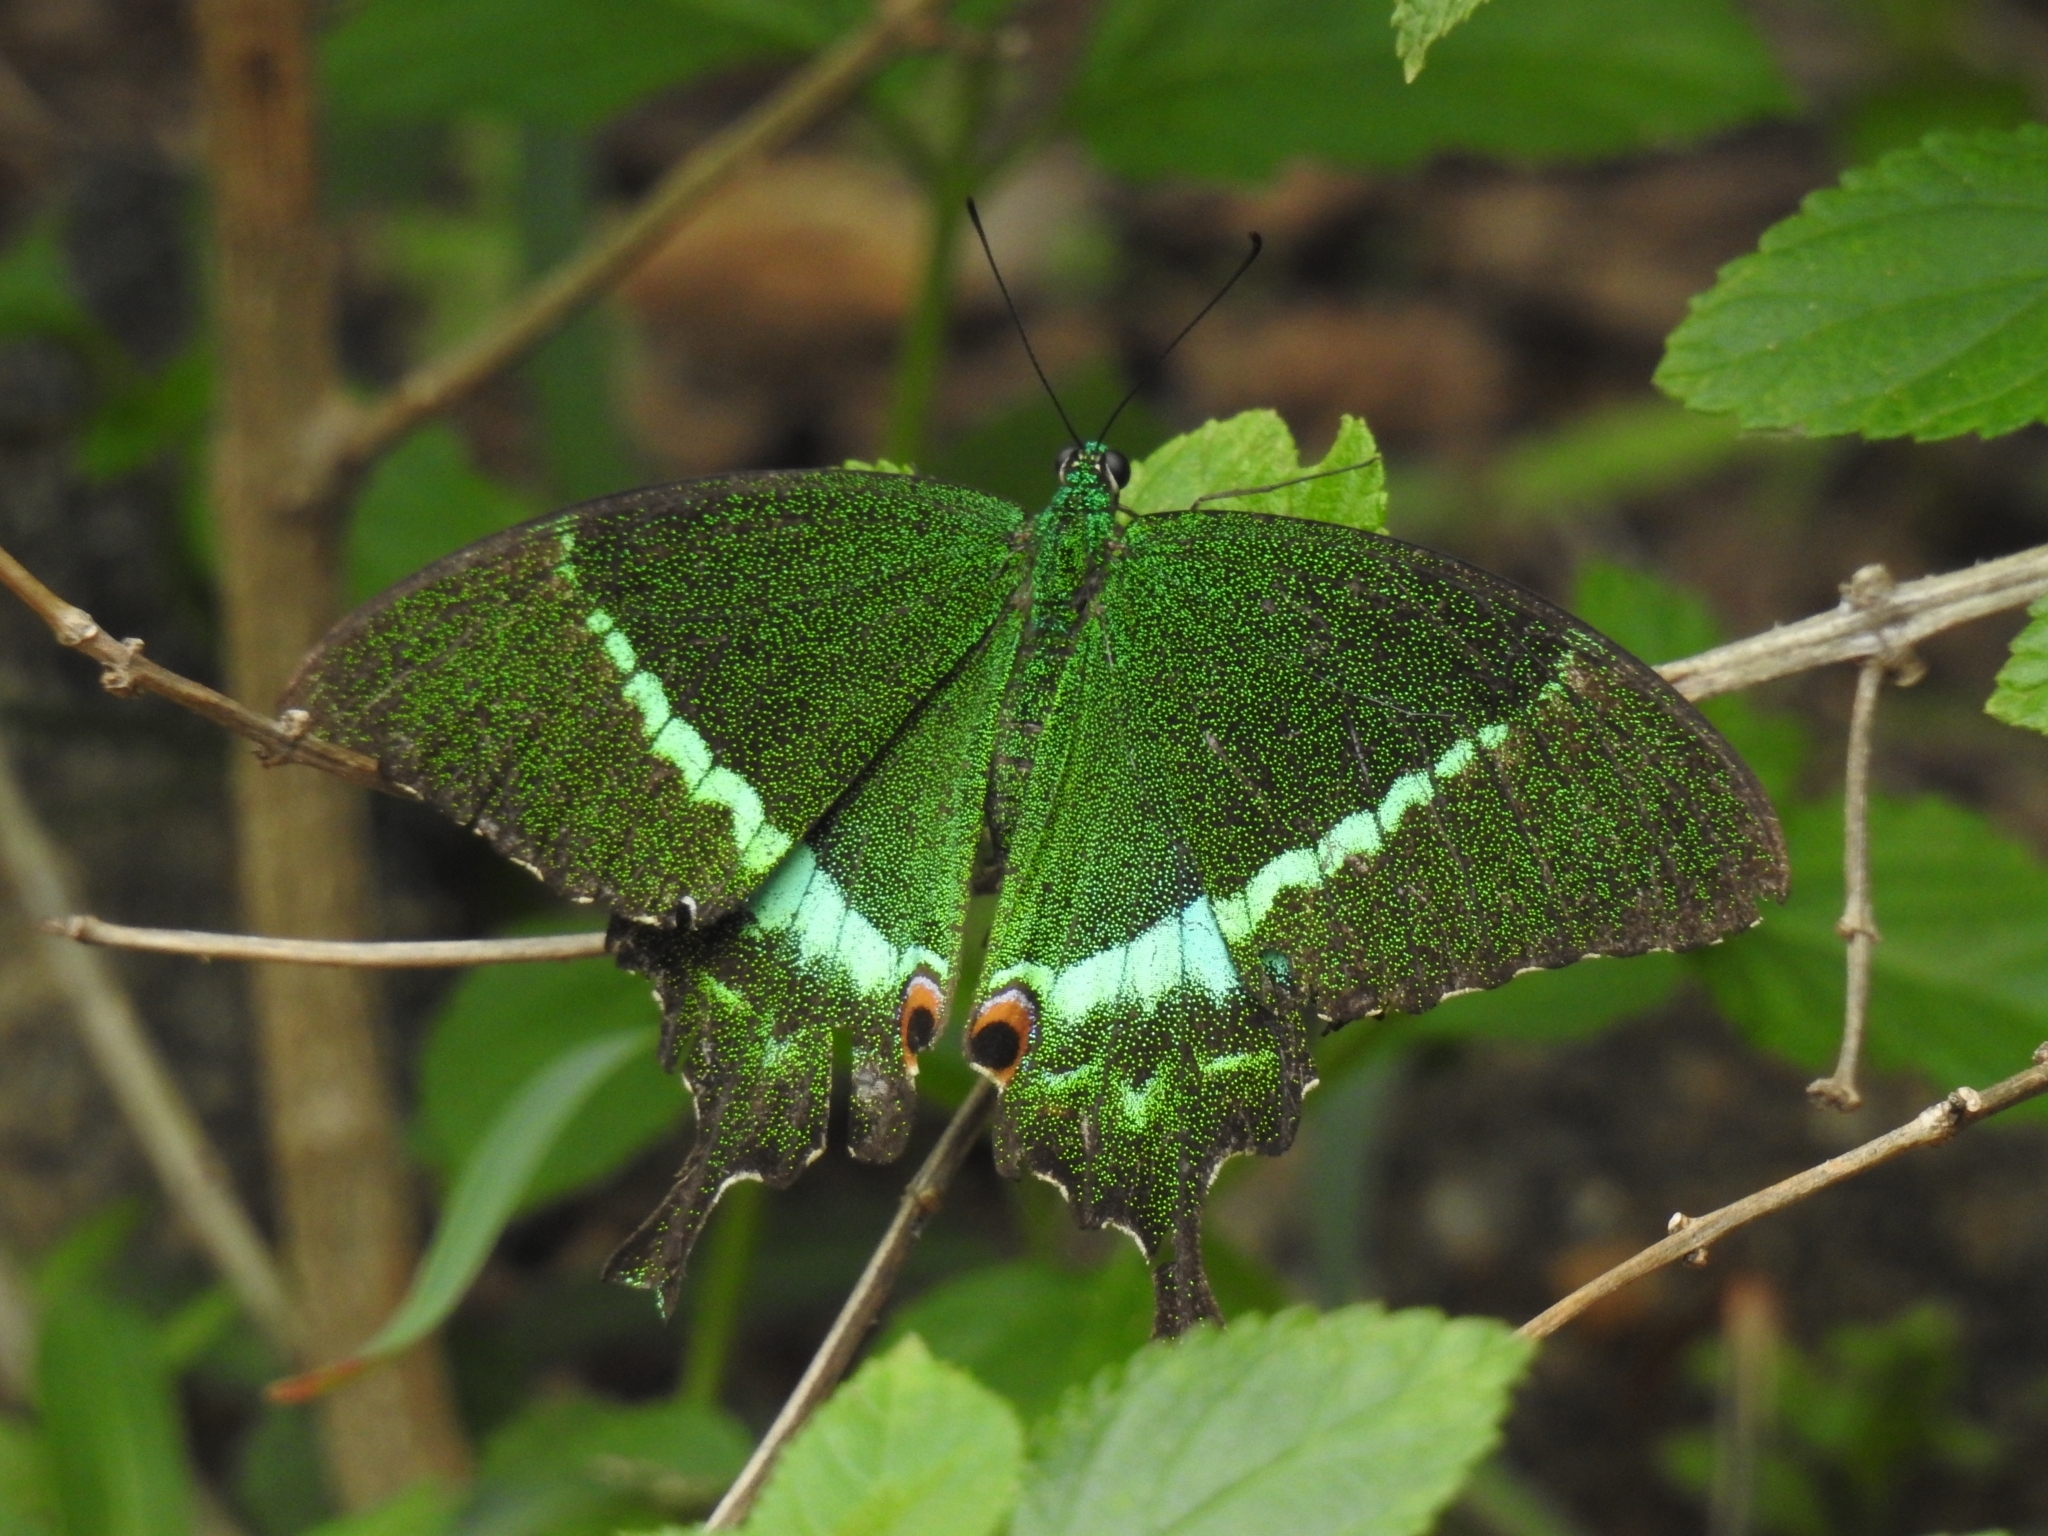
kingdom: Animalia
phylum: Arthropoda
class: Insecta
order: Lepidoptera
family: Papilionidae
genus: Papilio
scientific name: Papilio crino
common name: Common banded peacock
